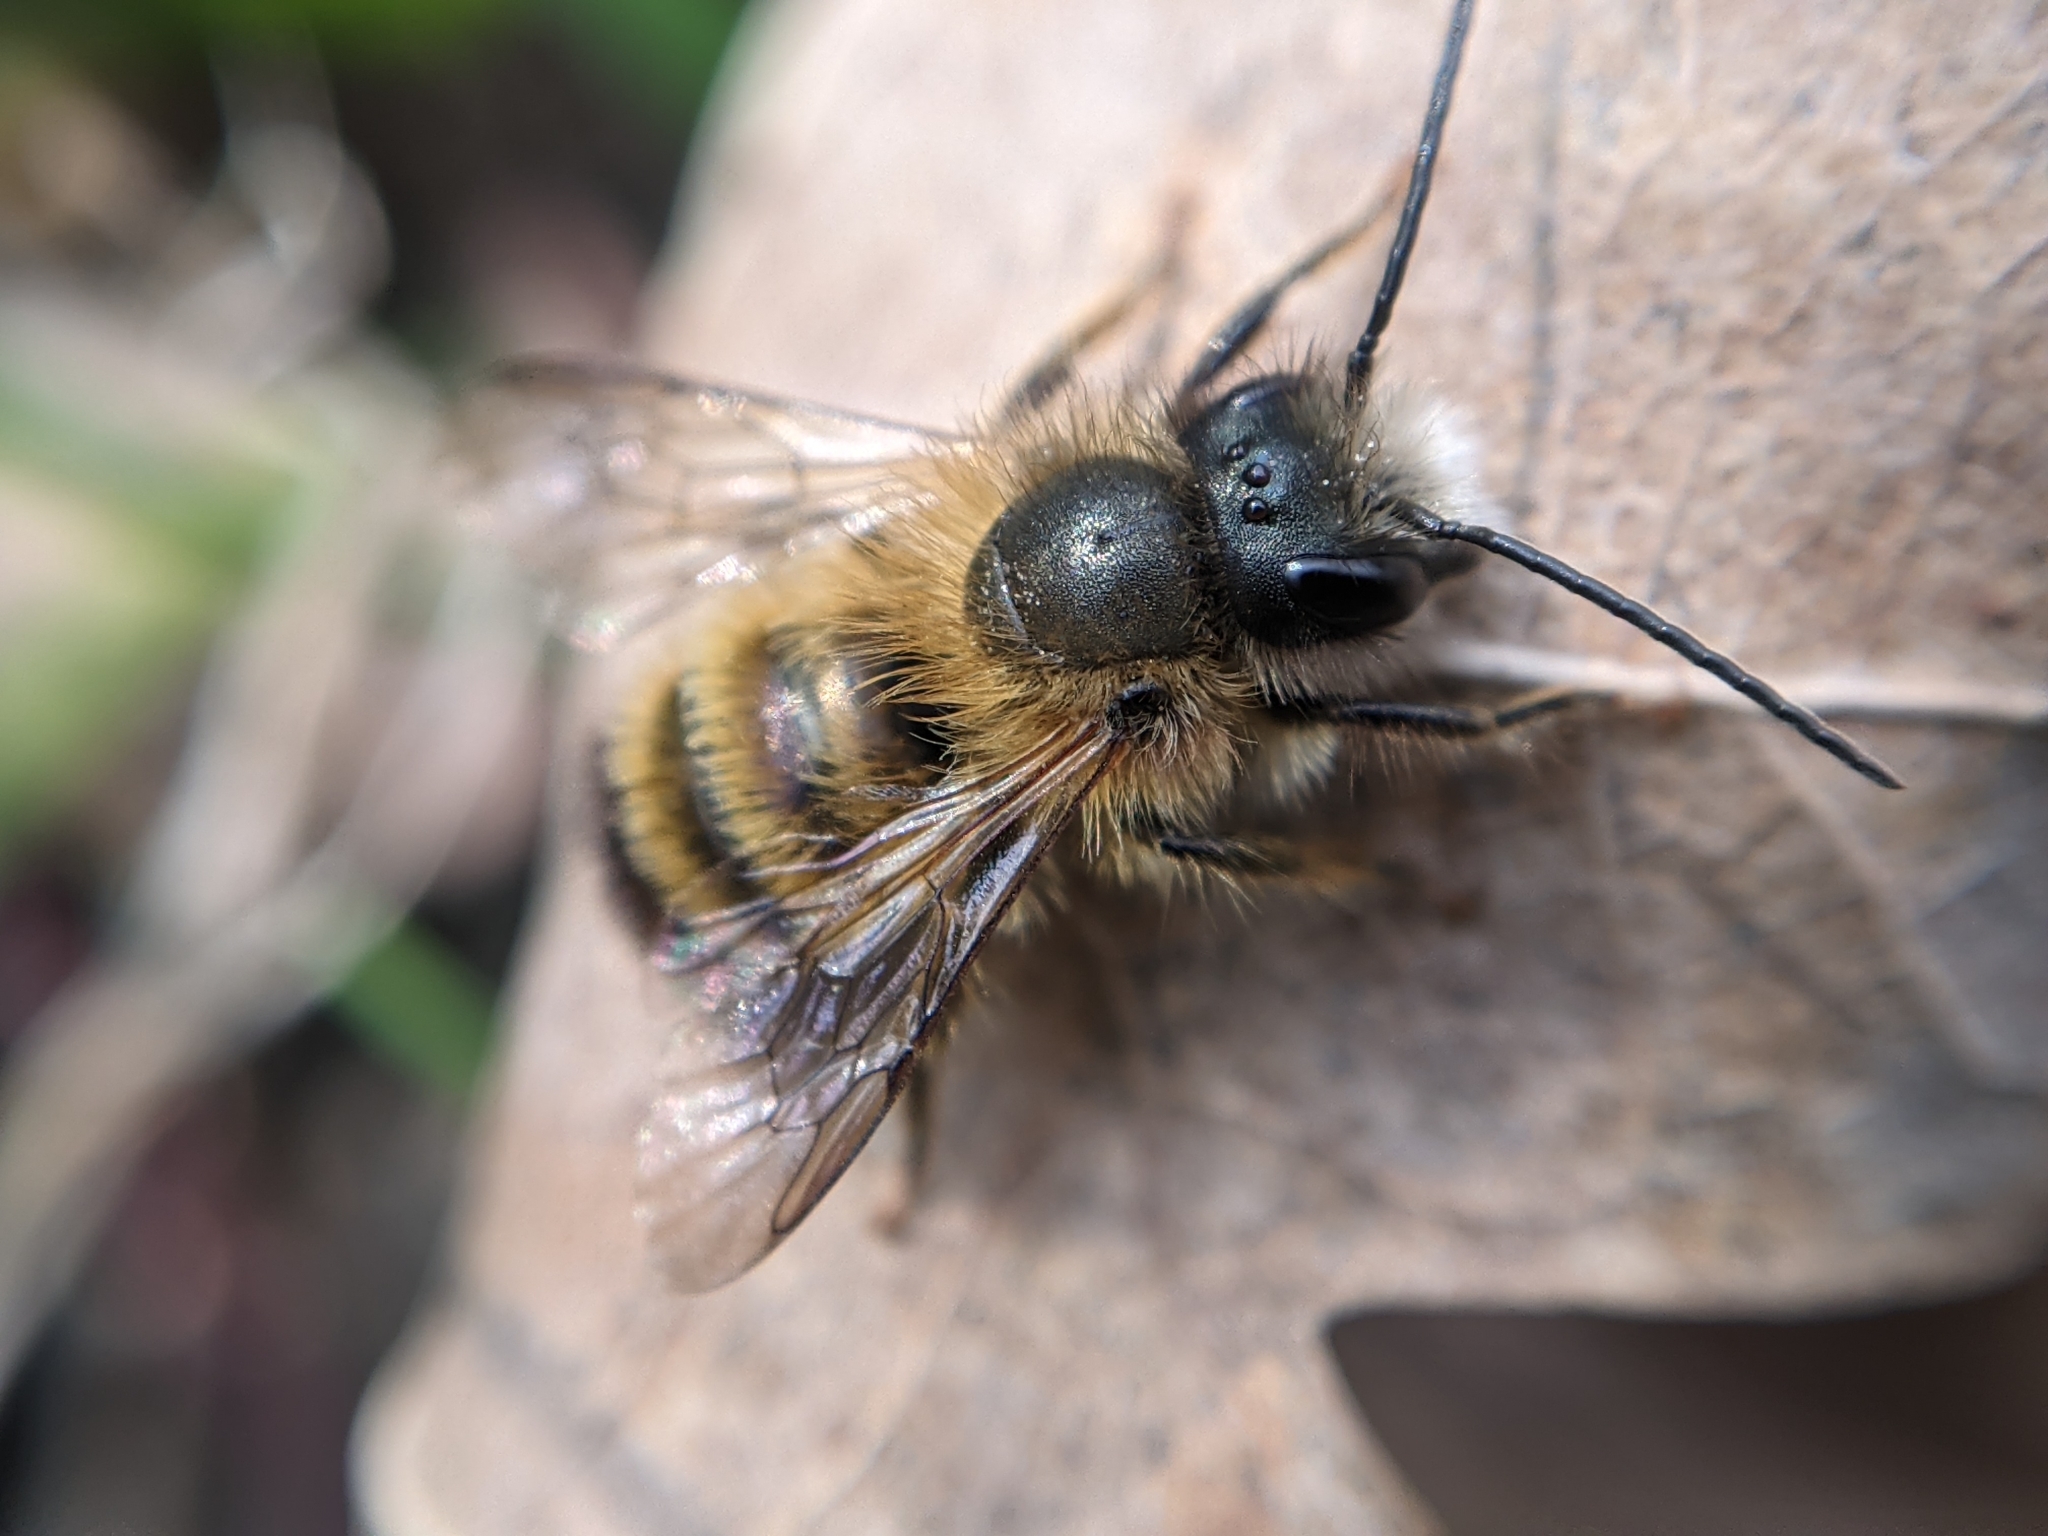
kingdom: Animalia
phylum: Arthropoda
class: Insecta
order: Hymenoptera
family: Megachilidae
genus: Osmia
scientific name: Osmia bicornis
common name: Red mason bee
